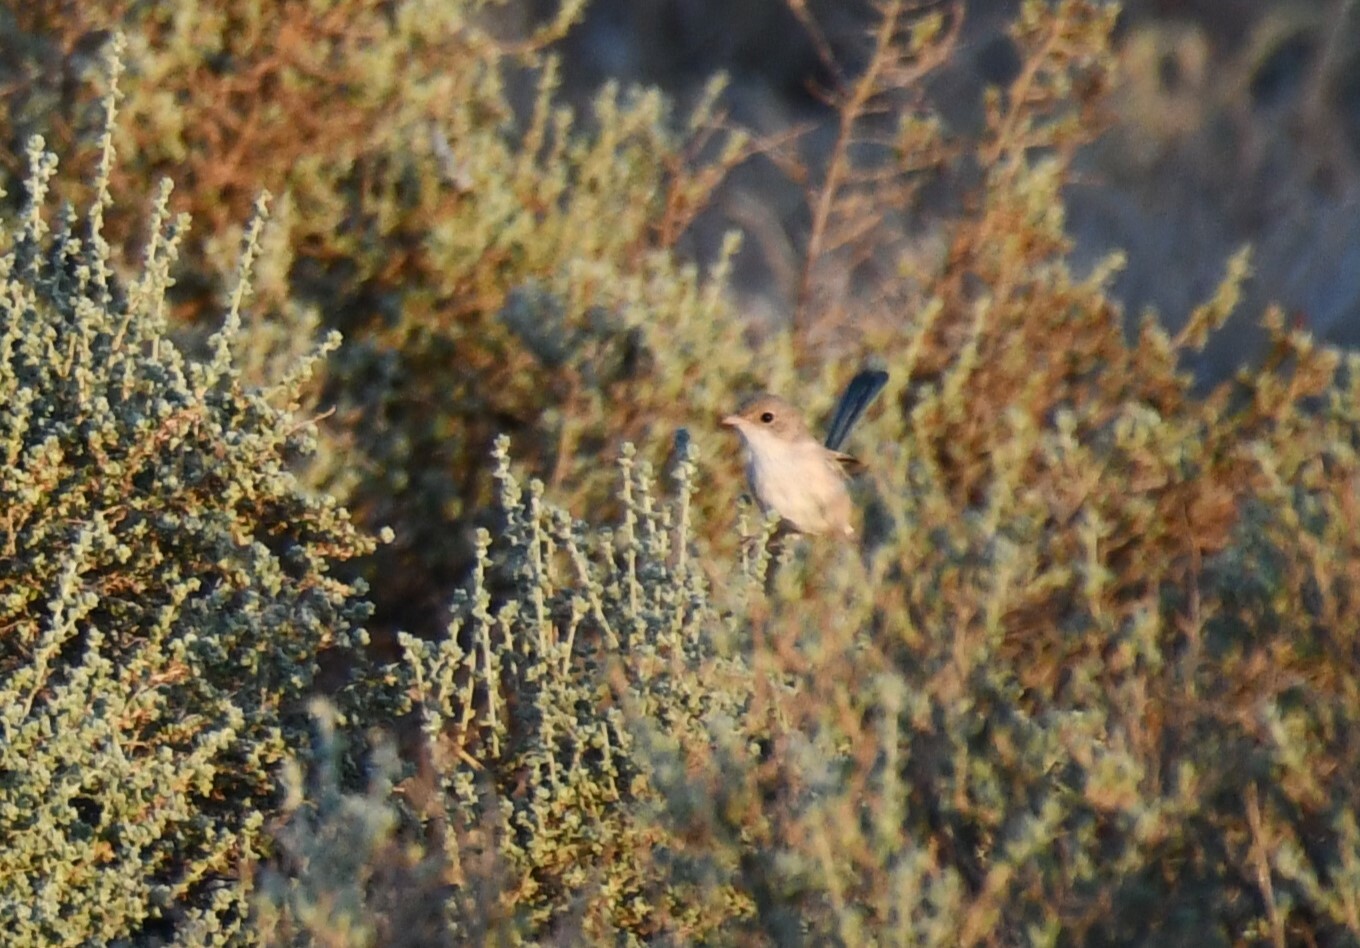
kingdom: Animalia
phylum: Chordata
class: Aves
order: Passeriformes
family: Maluridae
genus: Malurus
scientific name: Malurus leucopterus
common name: White-winged fairywren
